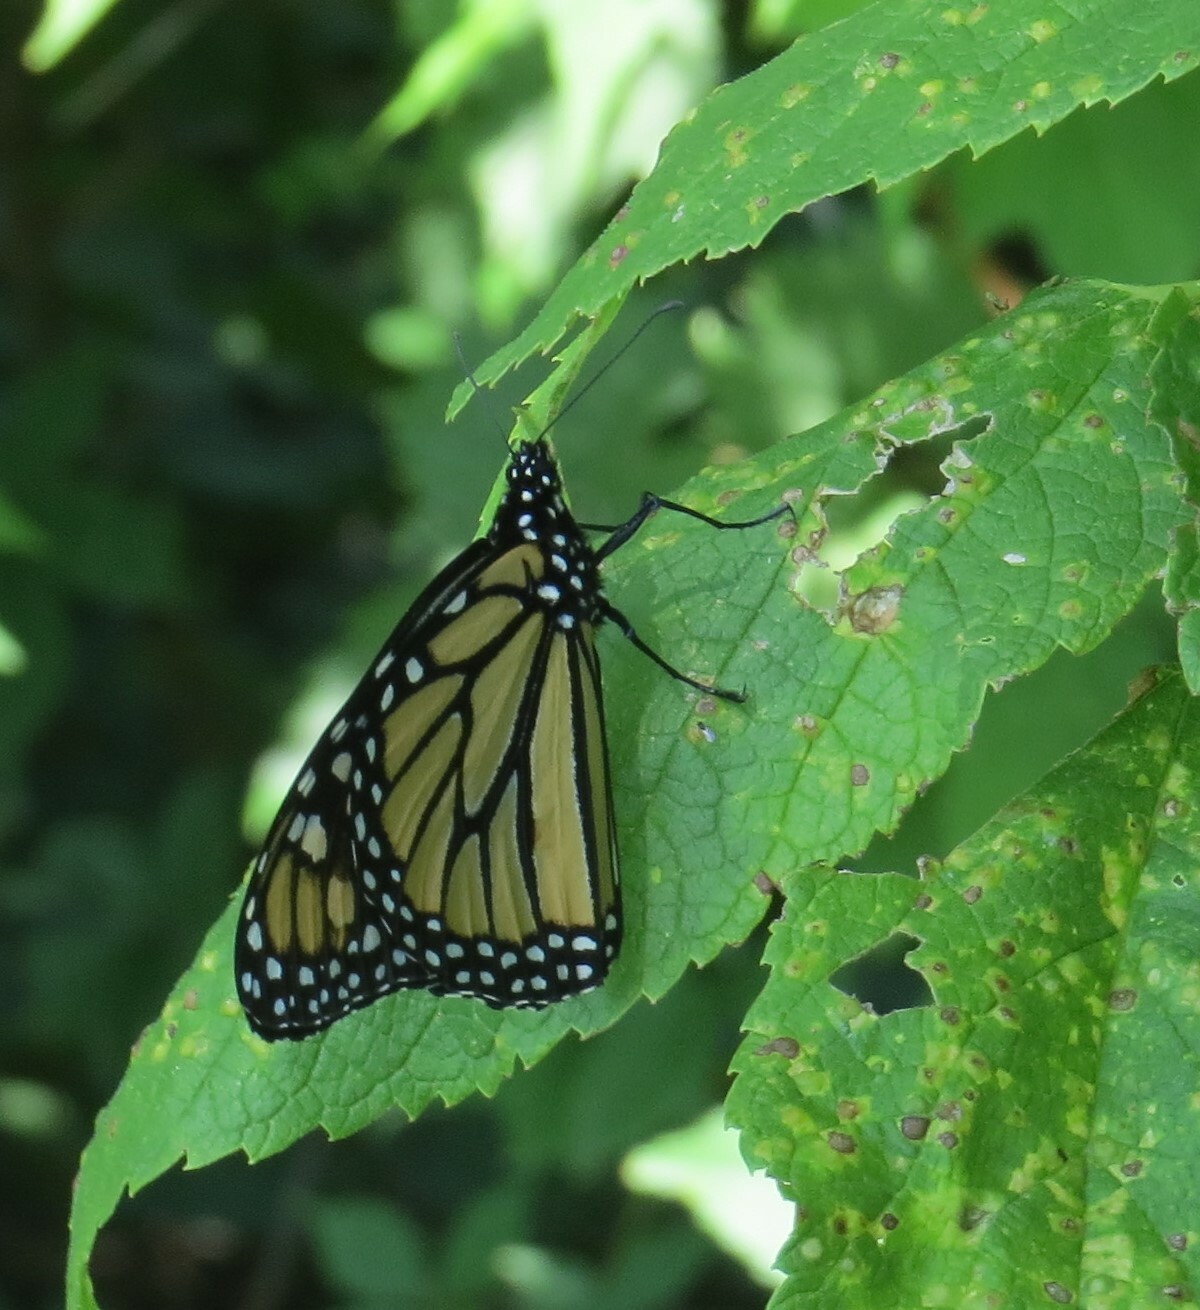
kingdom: Animalia
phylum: Arthropoda
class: Insecta
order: Lepidoptera
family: Nymphalidae
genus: Danaus
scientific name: Danaus plexippus
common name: Monarch
